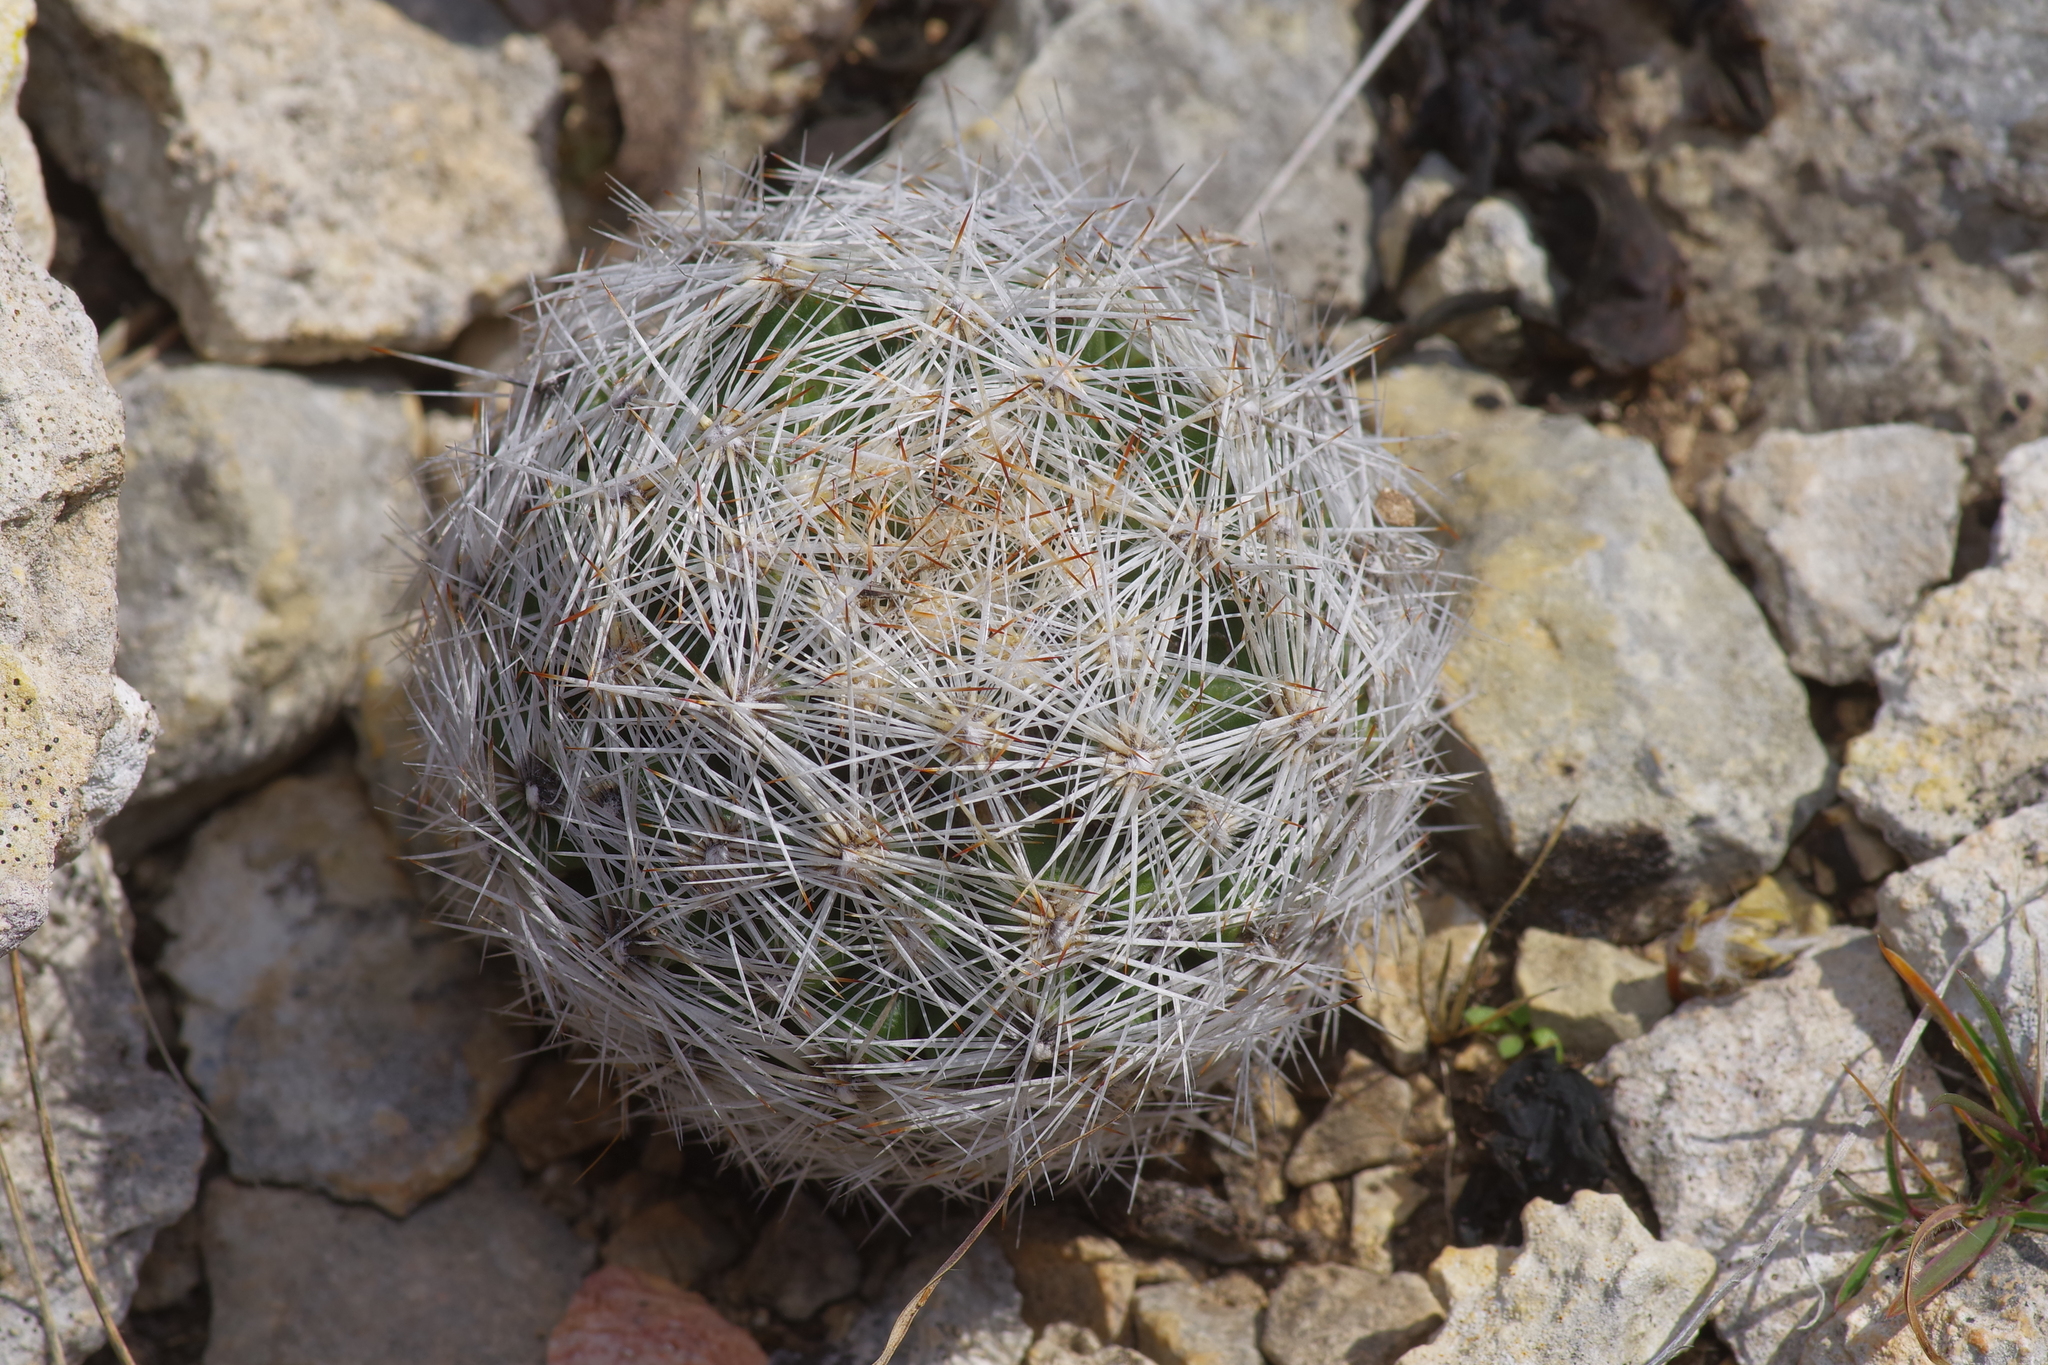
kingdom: Plantae
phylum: Tracheophyta
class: Magnoliopsida
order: Caryophyllales
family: Cactaceae
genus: Pelecyphora
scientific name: Pelecyphora vivipara
